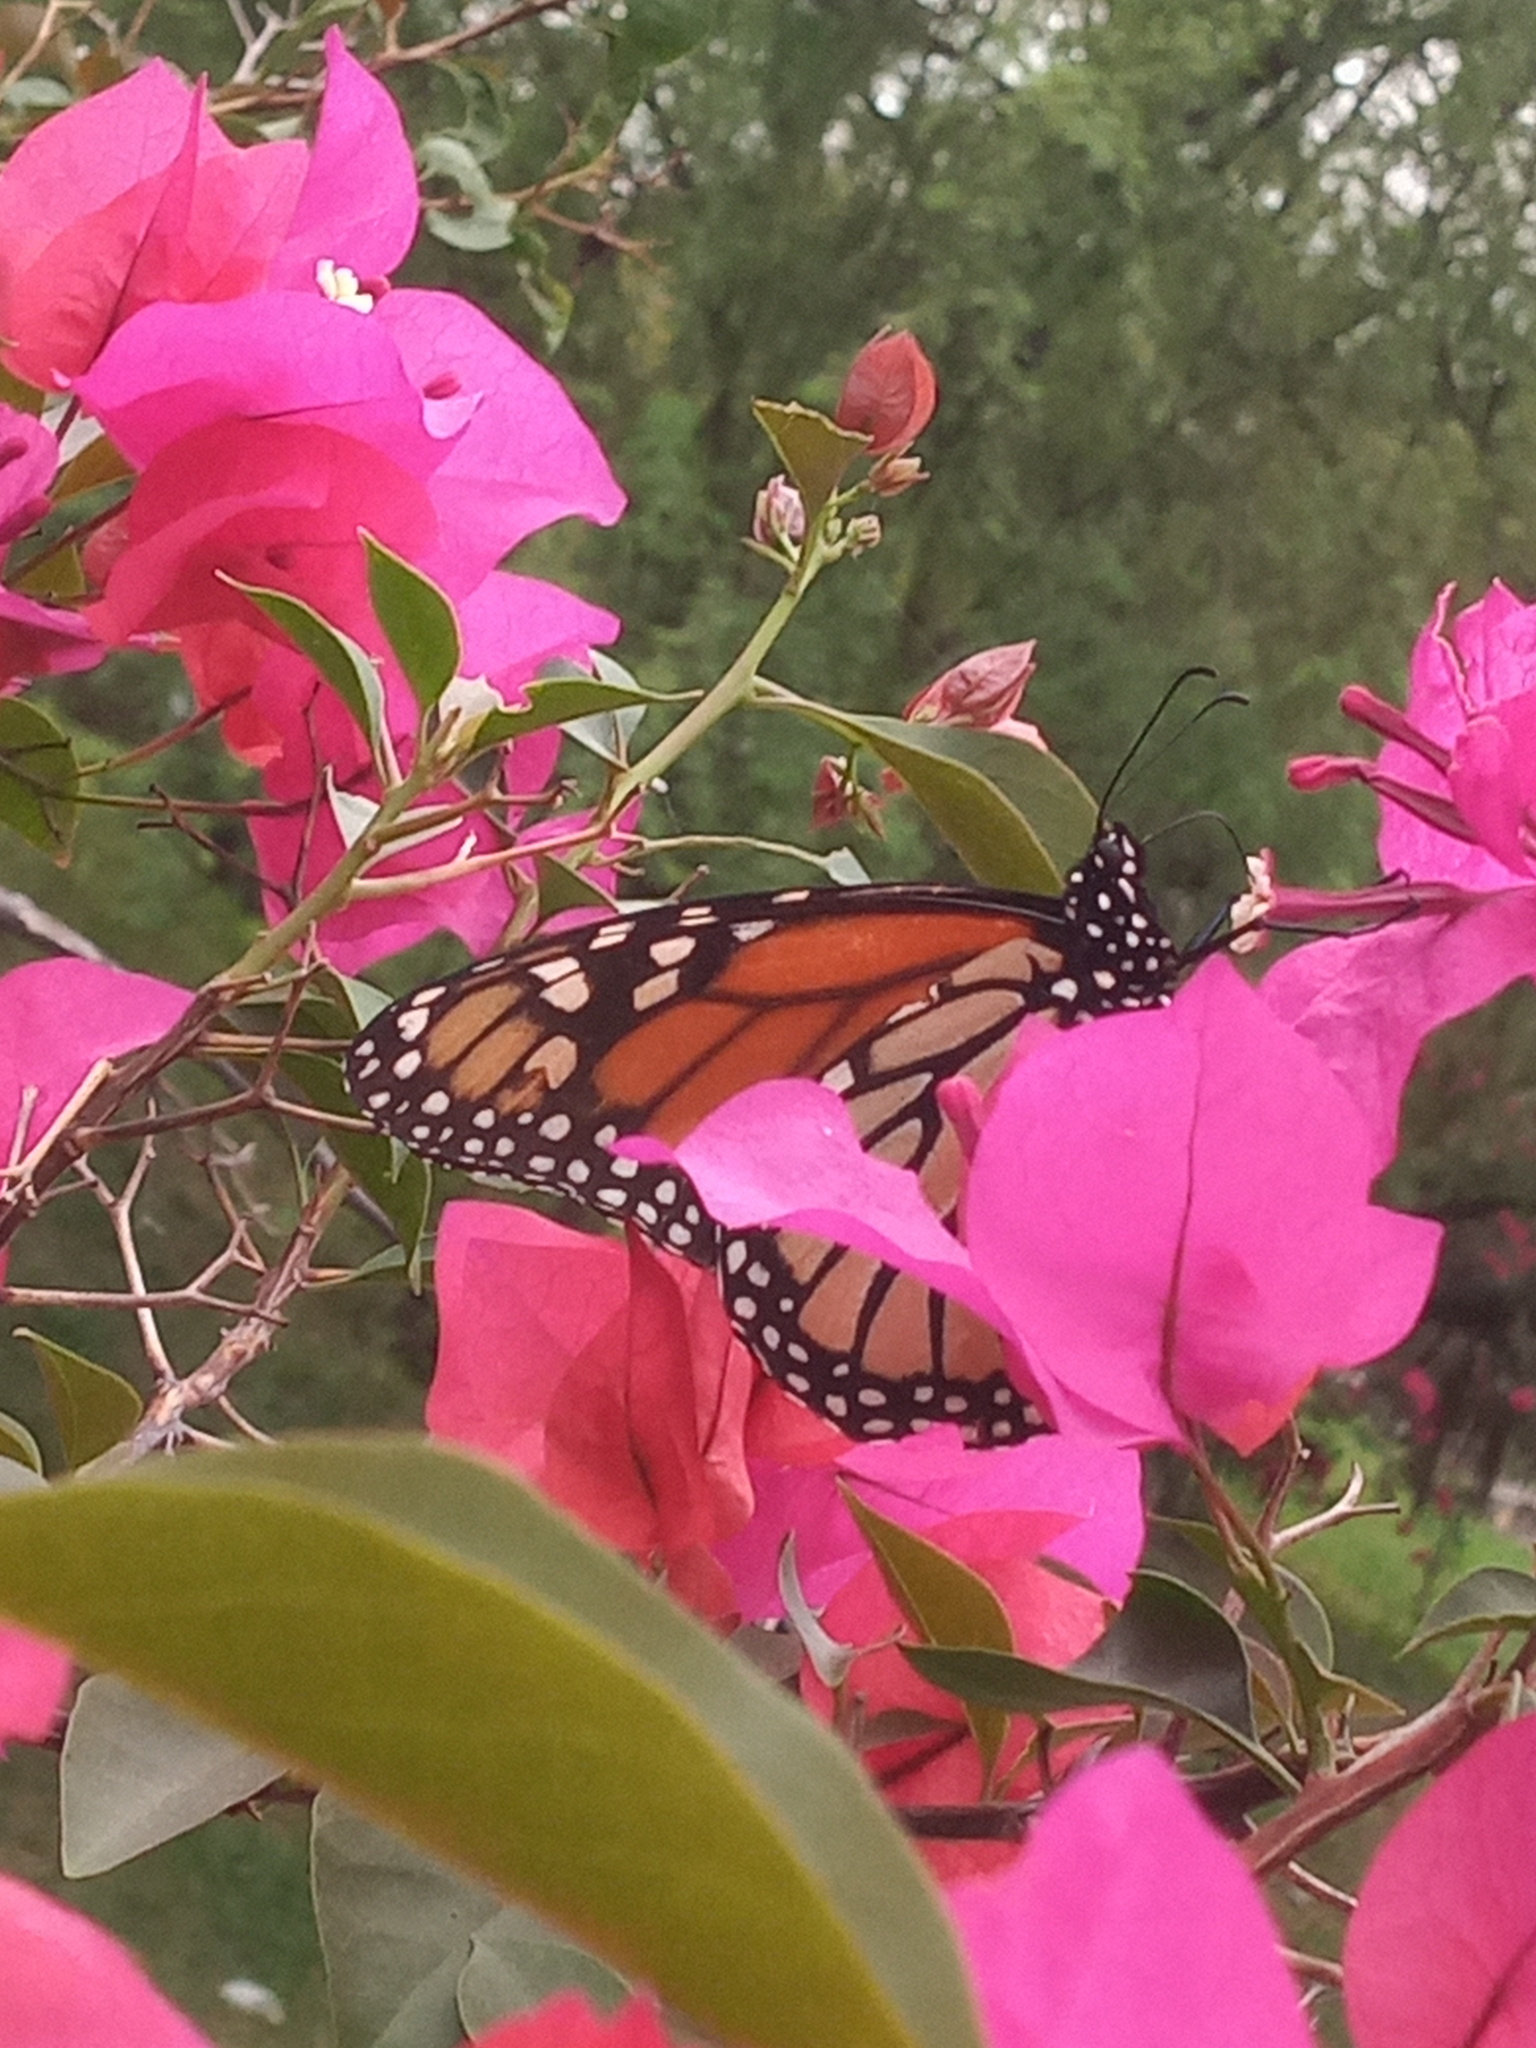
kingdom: Animalia
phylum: Arthropoda
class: Insecta
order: Lepidoptera
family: Nymphalidae
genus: Danaus
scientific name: Danaus plexippus
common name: Monarch
